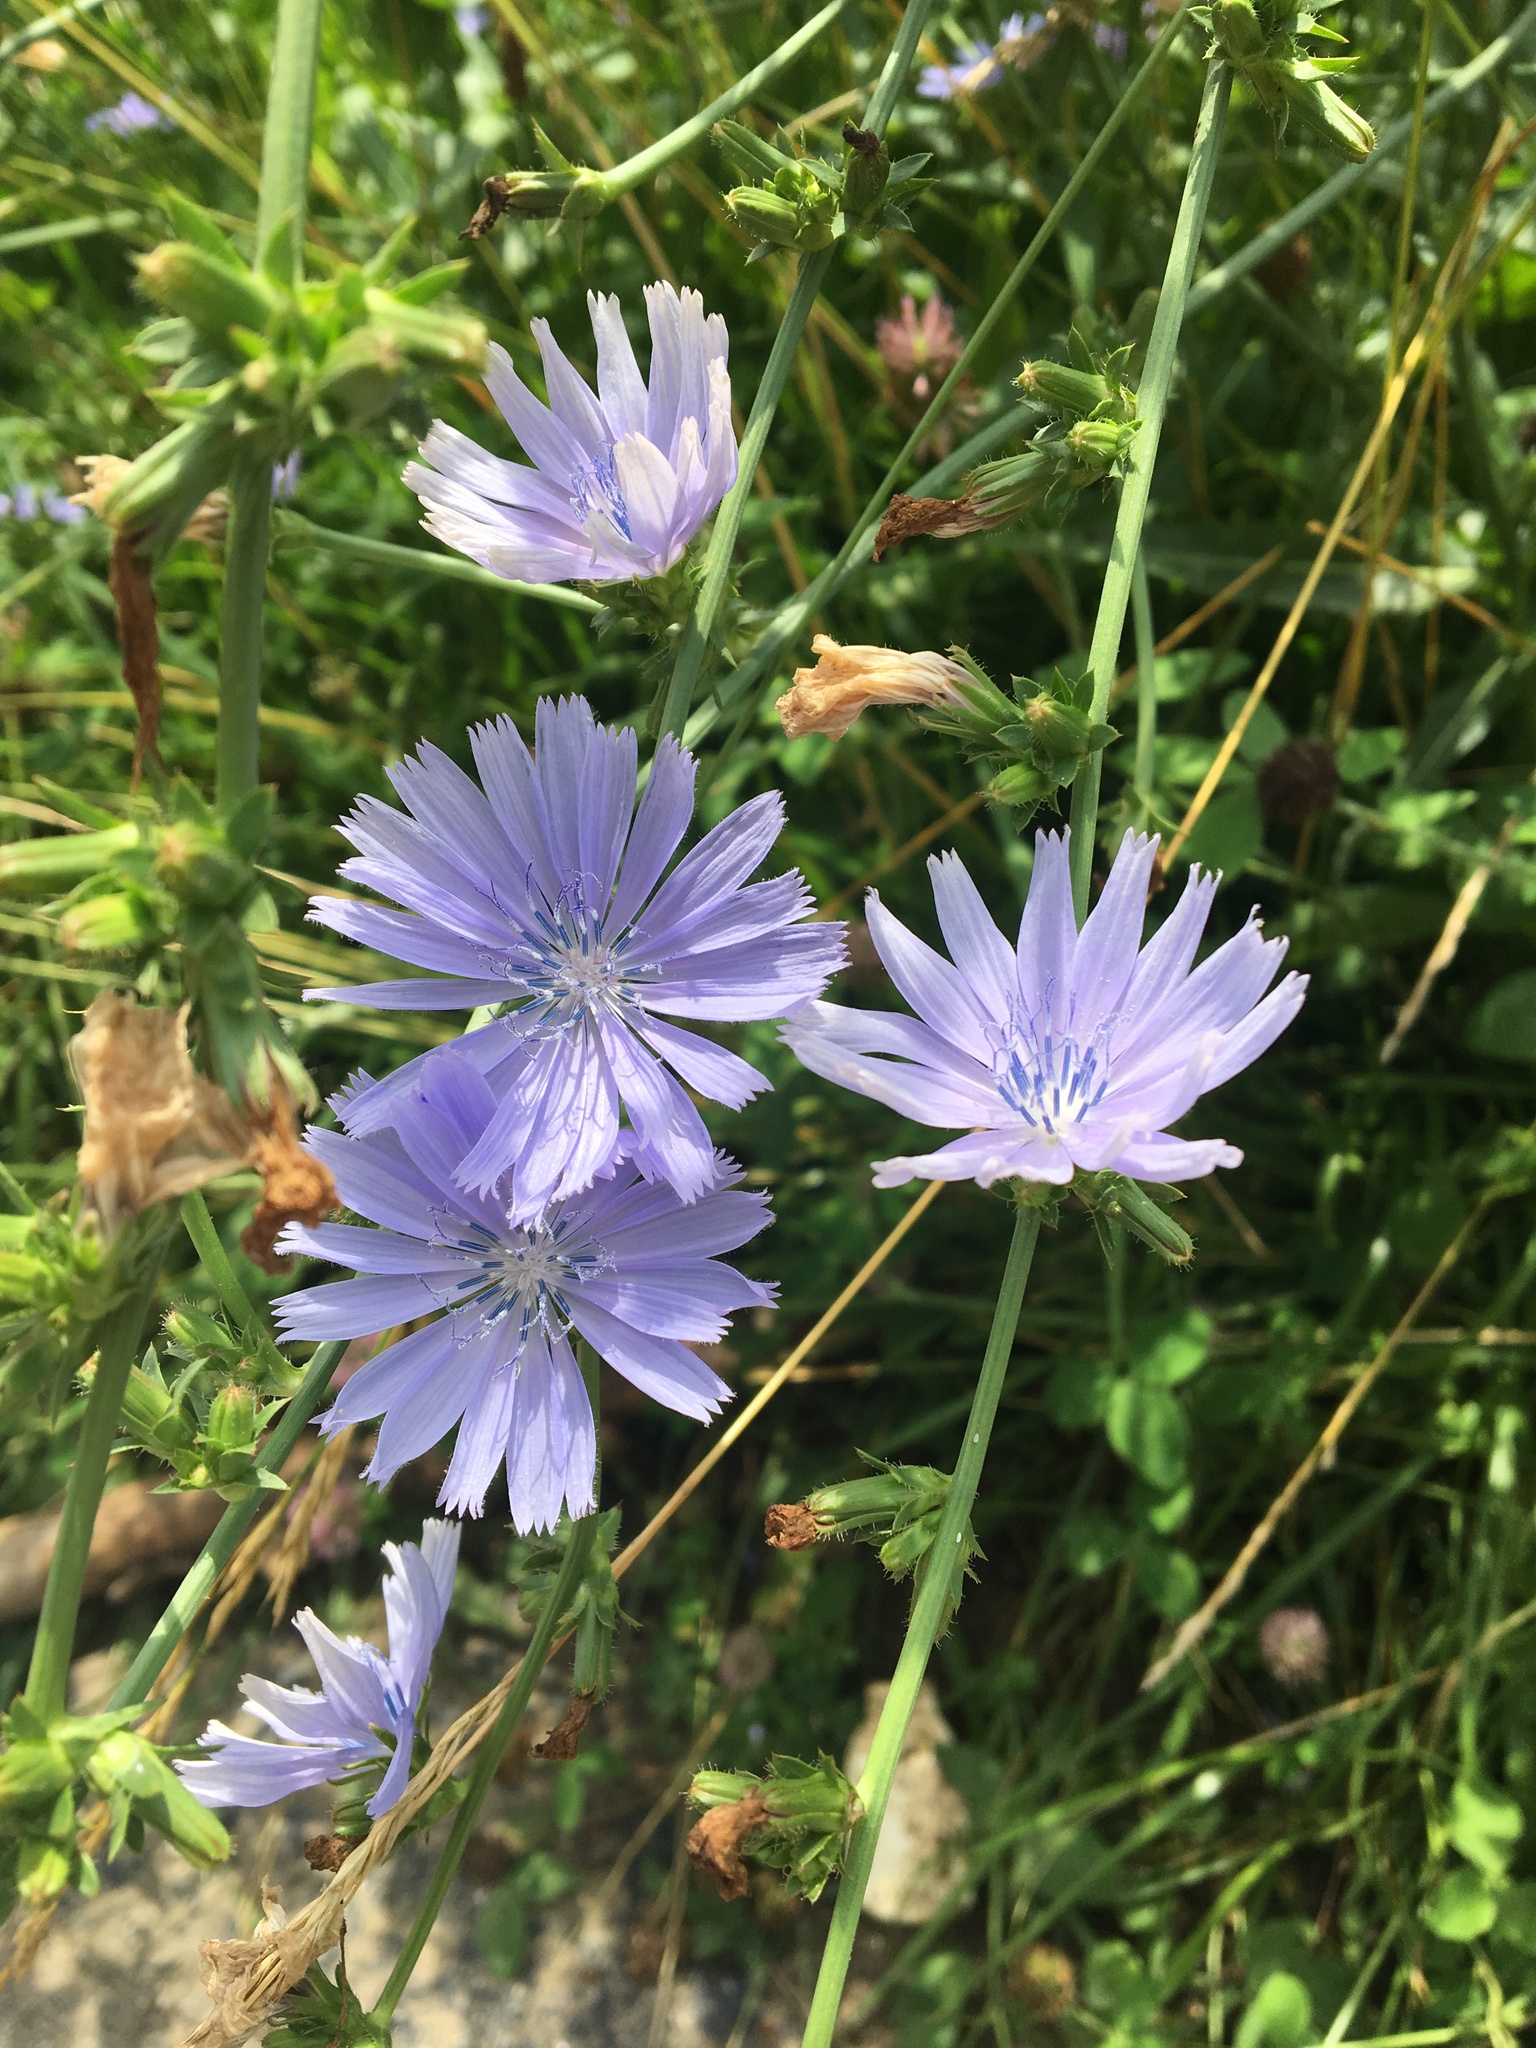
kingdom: Plantae
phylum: Tracheophyta
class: Magnoliopsida
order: Asterales
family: Asteraceae
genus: Cichorium
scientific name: Cichorium intybus
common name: Chicory
